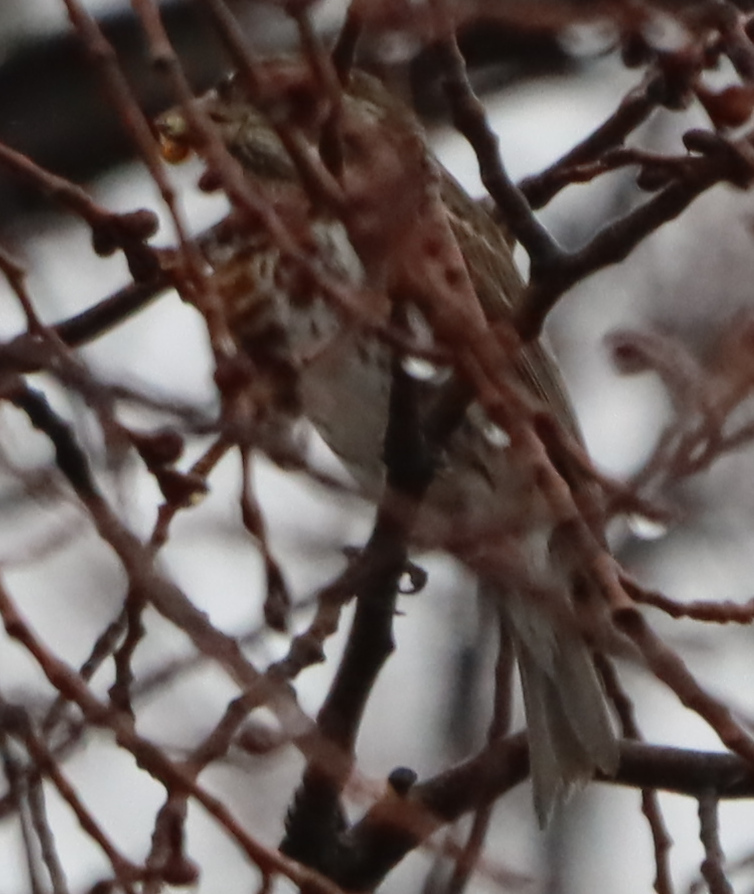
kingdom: Animalia
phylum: Chordata
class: Aves
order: Passeriformes
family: Fringillidae
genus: Haemorhous
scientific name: Haemorhous purpureus
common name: Purple finch
